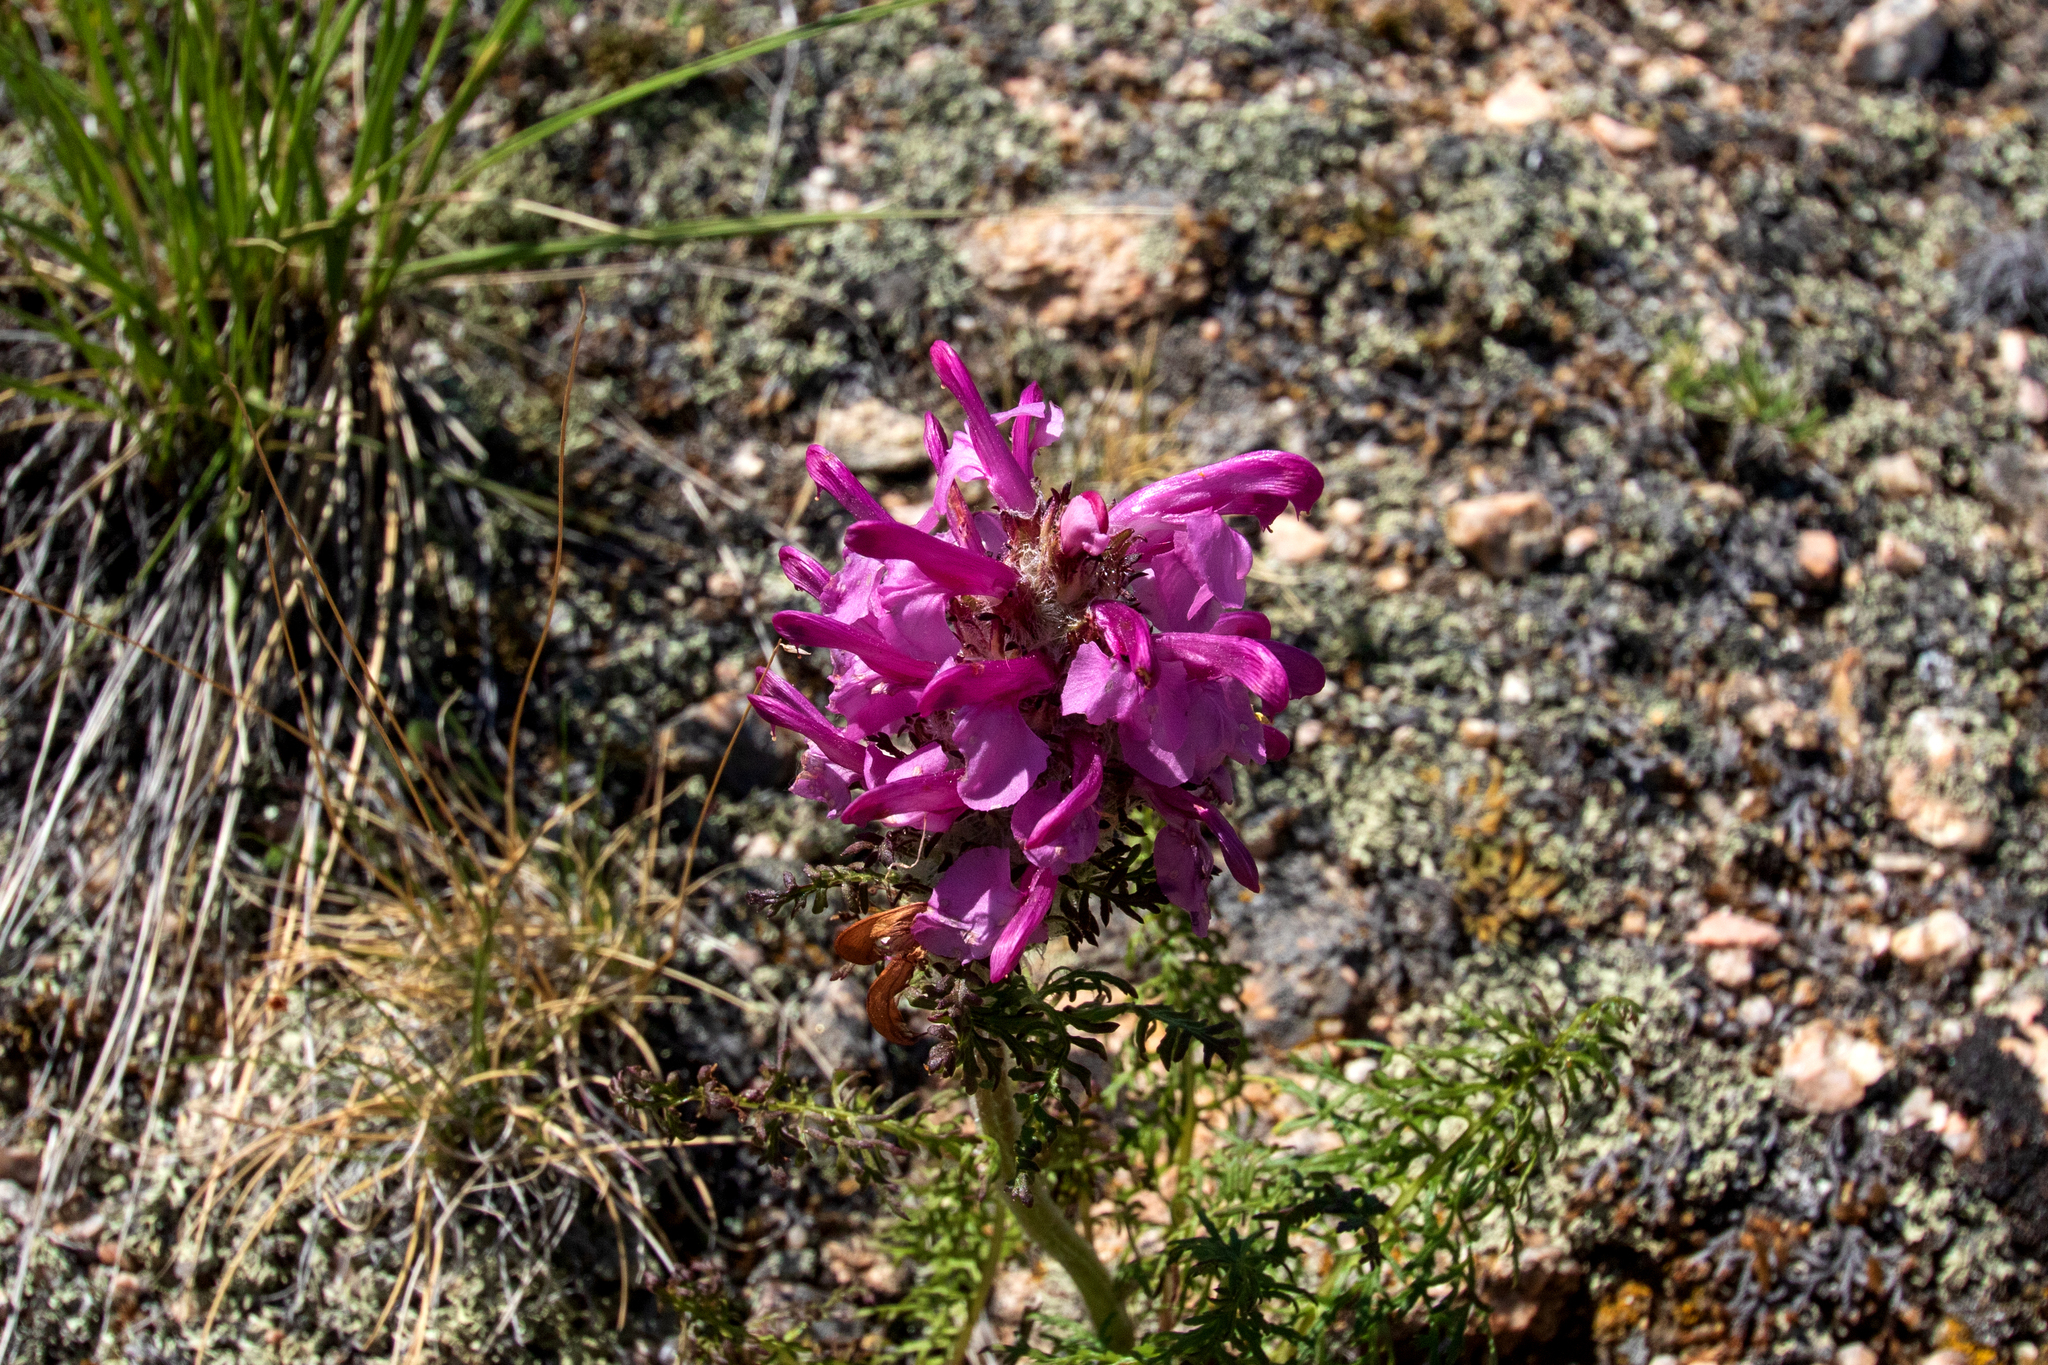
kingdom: Plantae
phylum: Tracheophyta
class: Magnoliopsida
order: Lamiales
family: Orobanchaceae
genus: Pedicularis
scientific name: Pedicularis rubens
